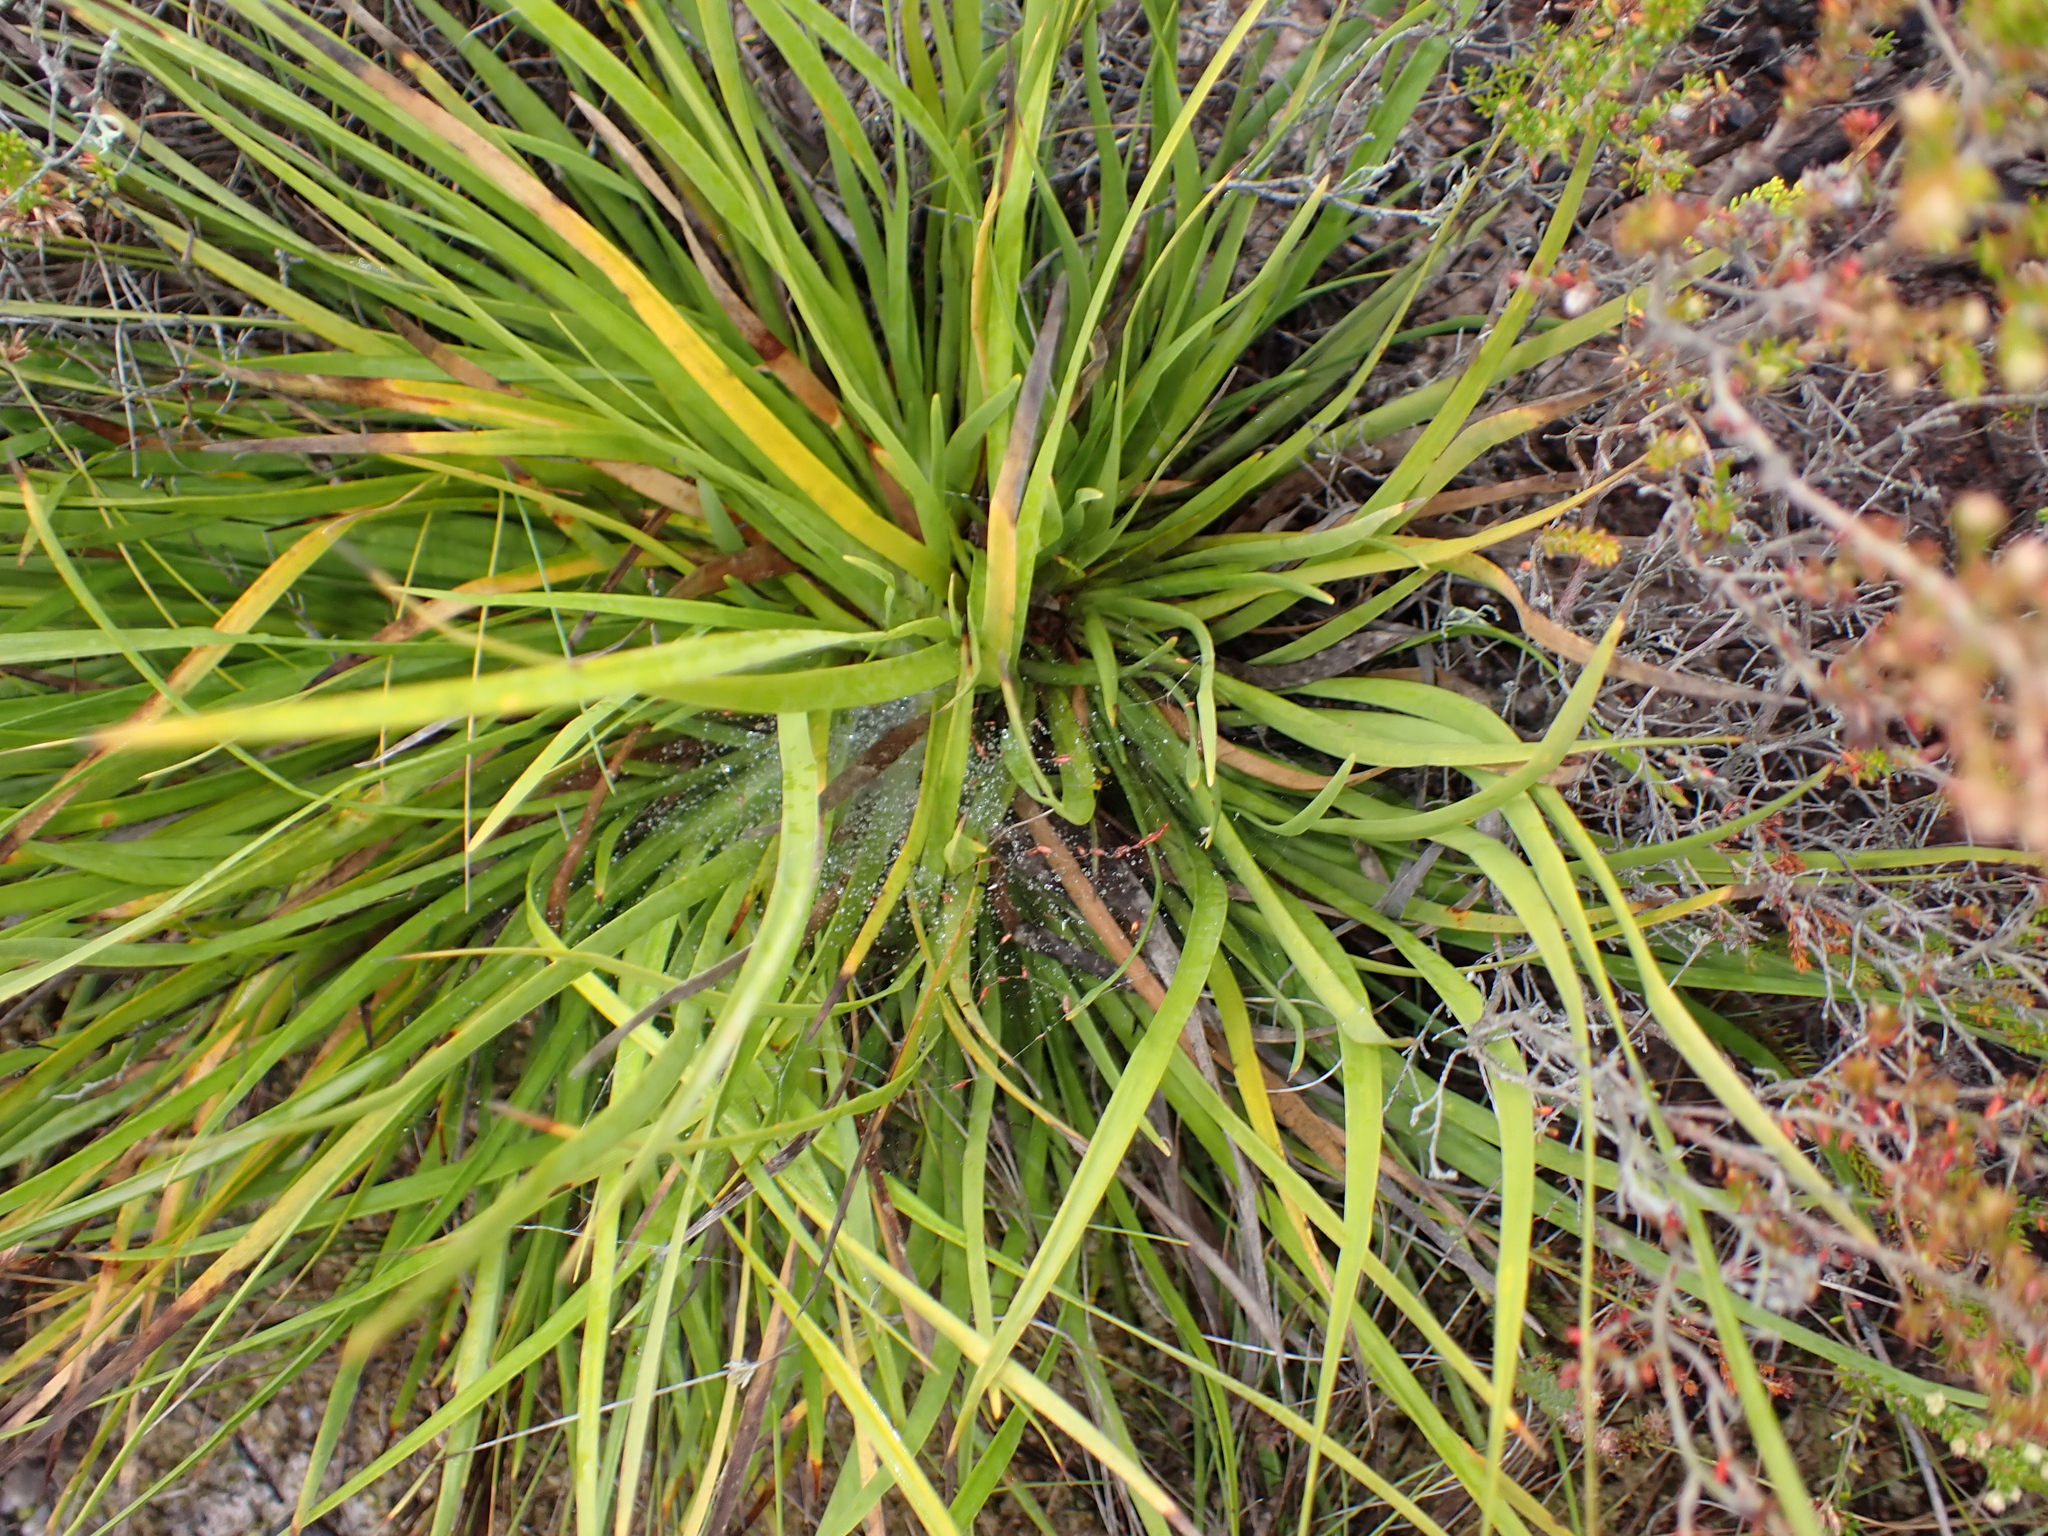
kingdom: Plantae
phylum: Tracheophyta
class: Liliopsida
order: Poales
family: Cyperaceae
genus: Tetraria
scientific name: Tetraria thermalis
